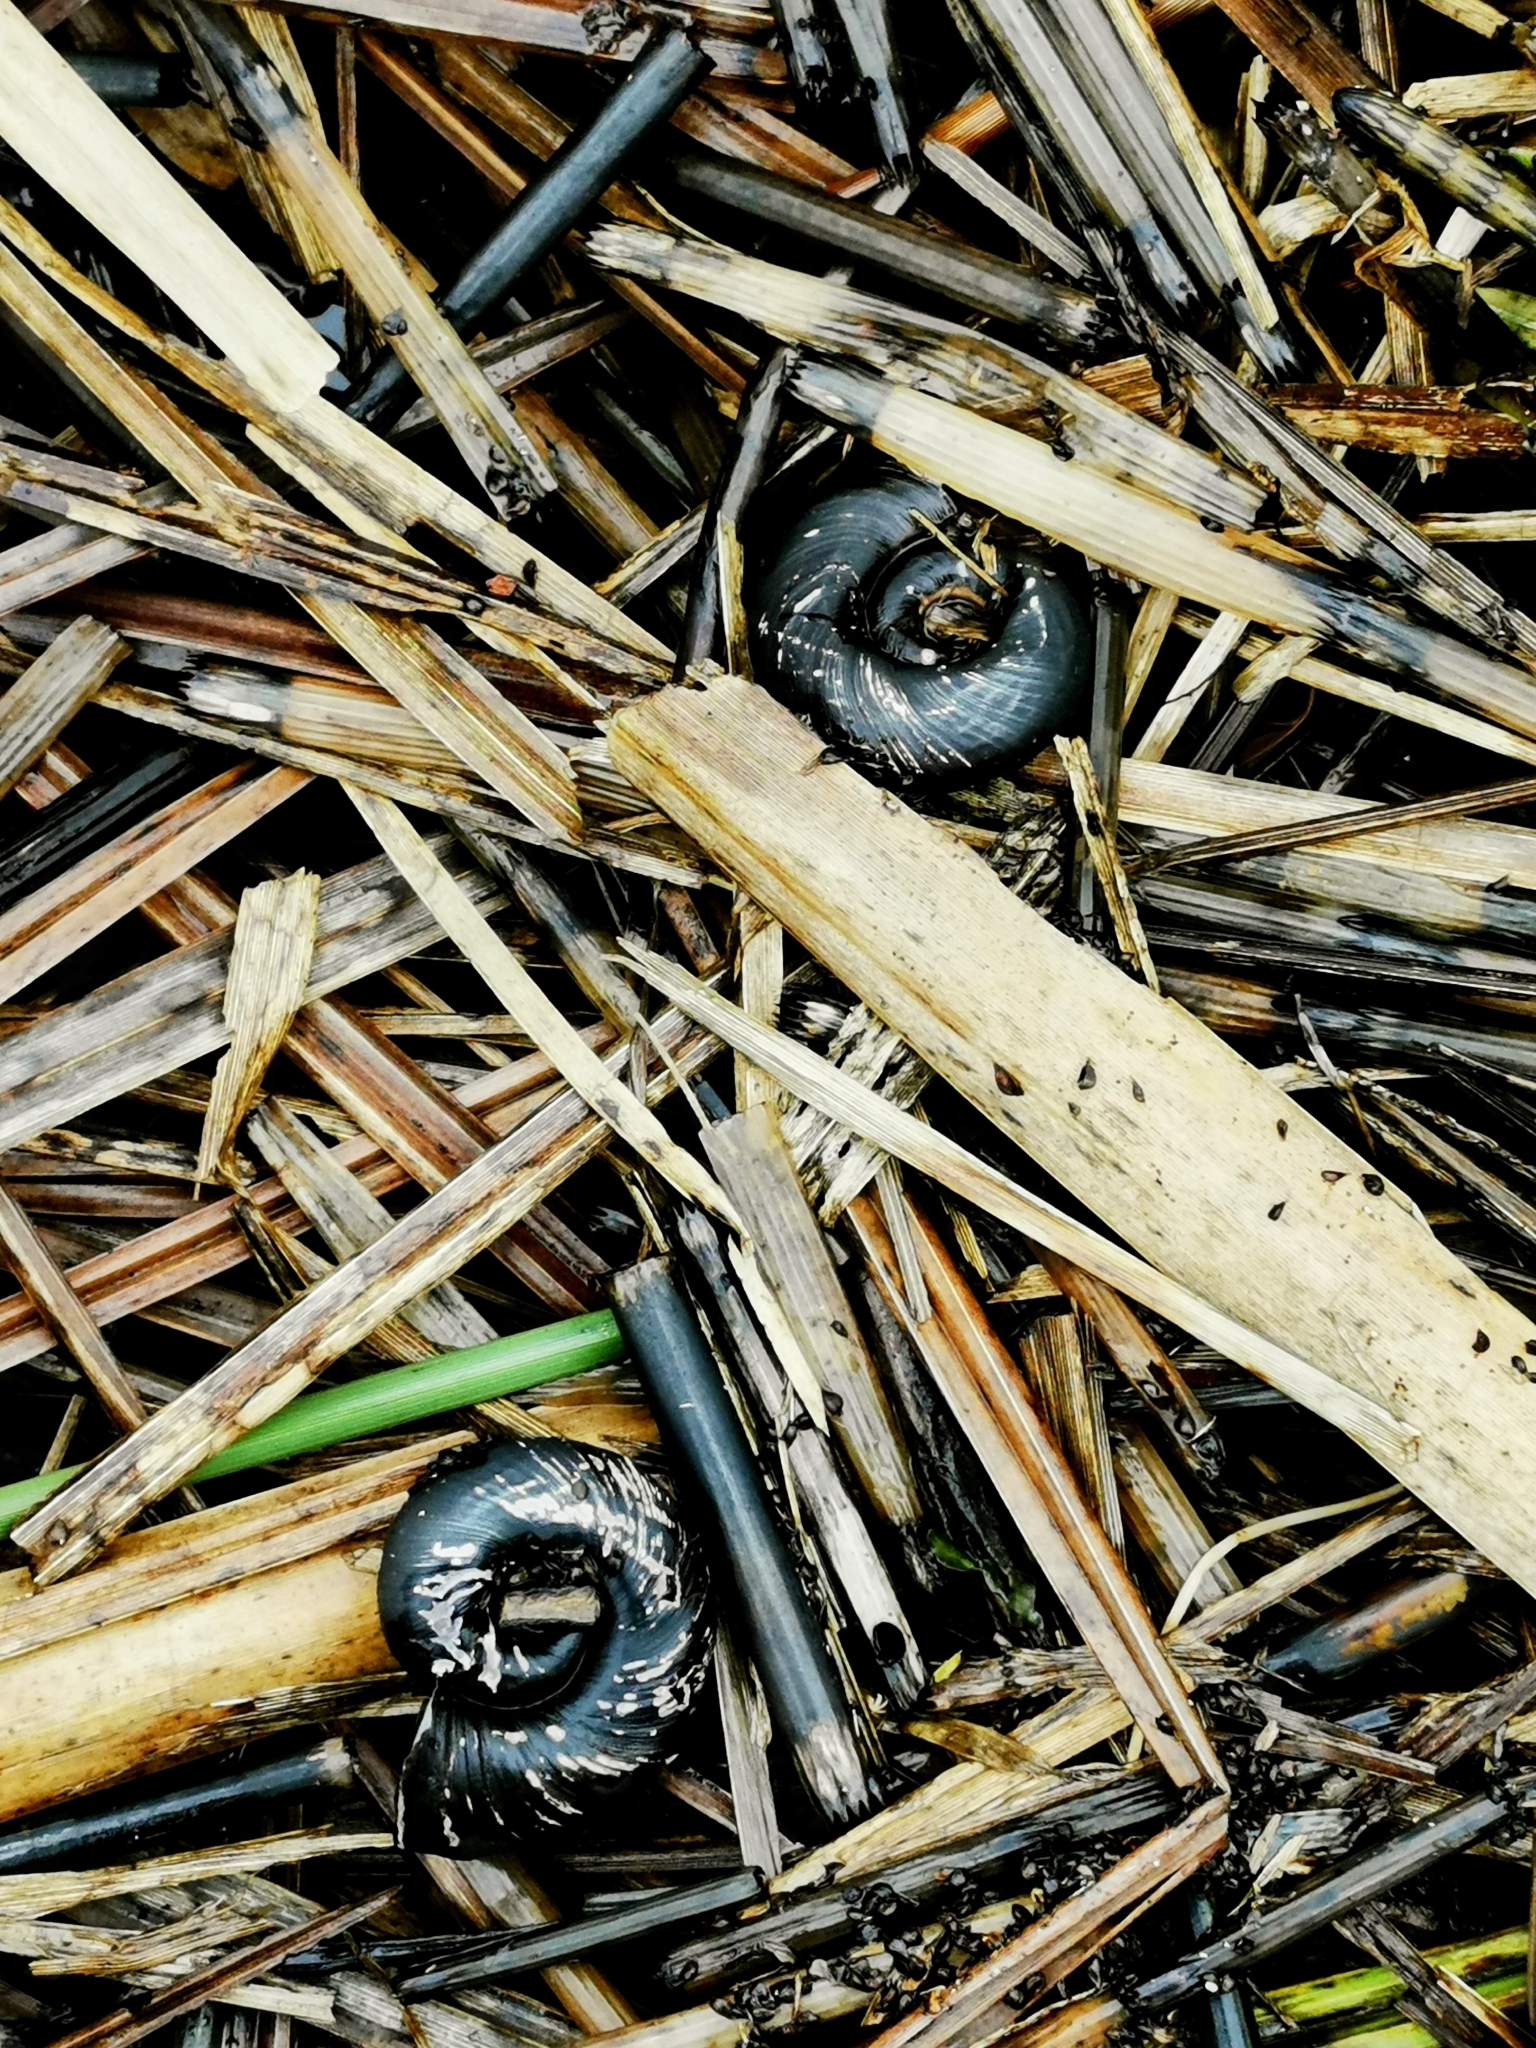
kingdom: Animalia
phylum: Mollusca
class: Gastropoda
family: Planorbidae
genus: Planorbarius
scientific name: Planorbarius corneus
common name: Great ramshorn
